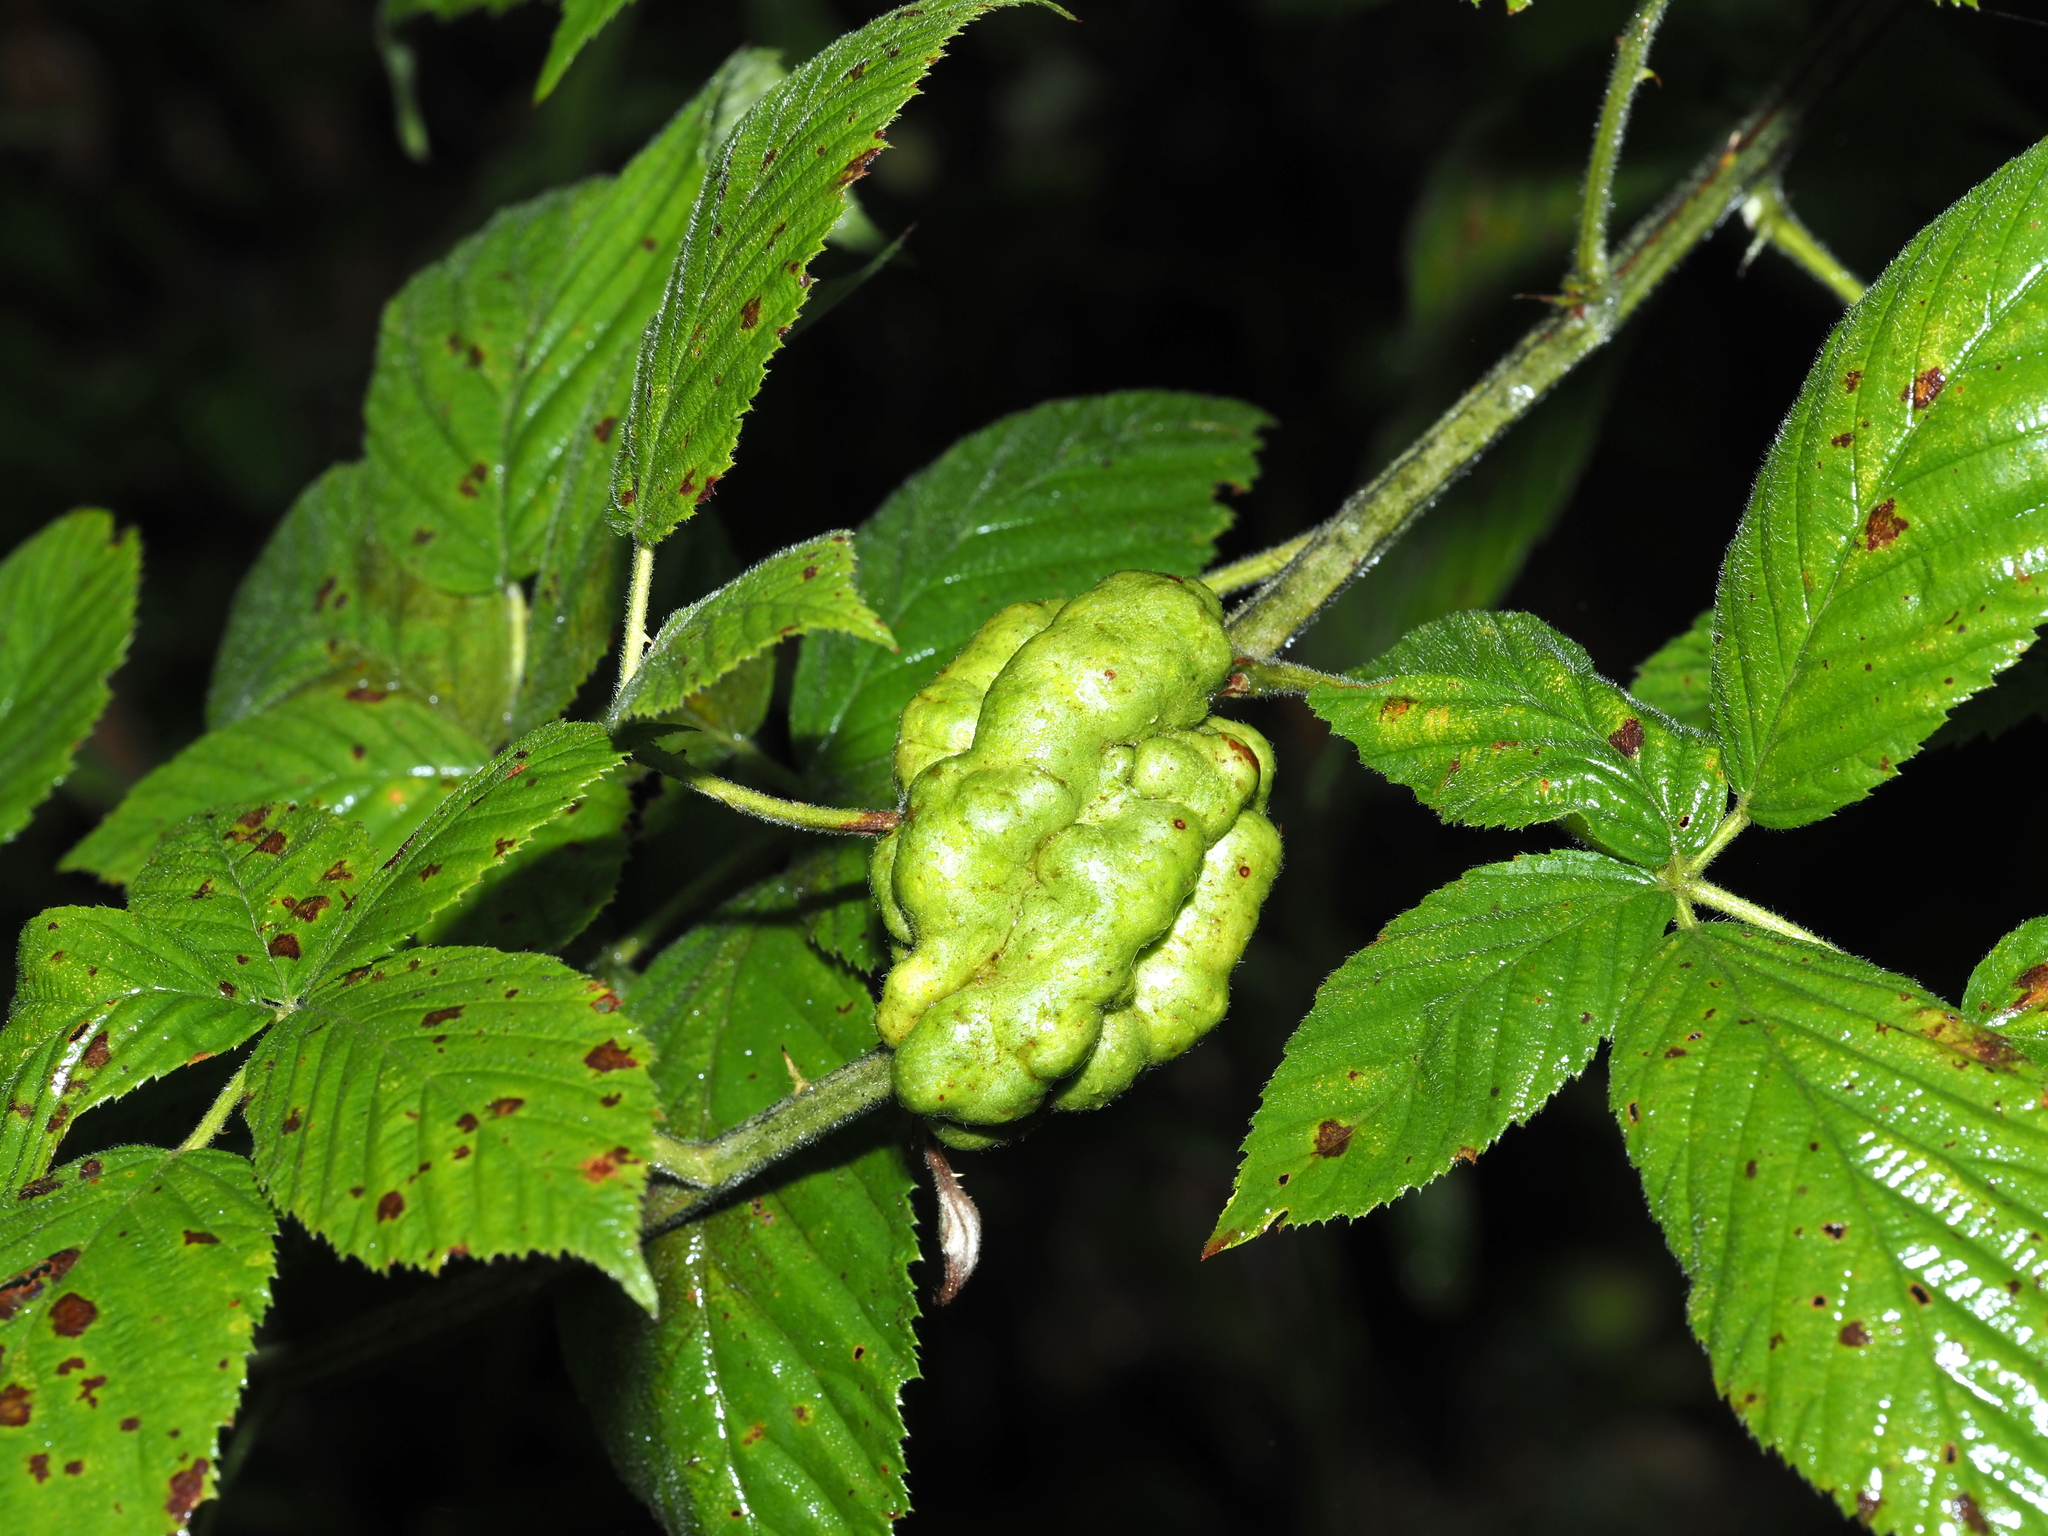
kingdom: Animalia
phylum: Arthropoda
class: Insecta
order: Hymenoptera
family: Cynipidae
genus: Diastrophus
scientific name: Diastrophus
